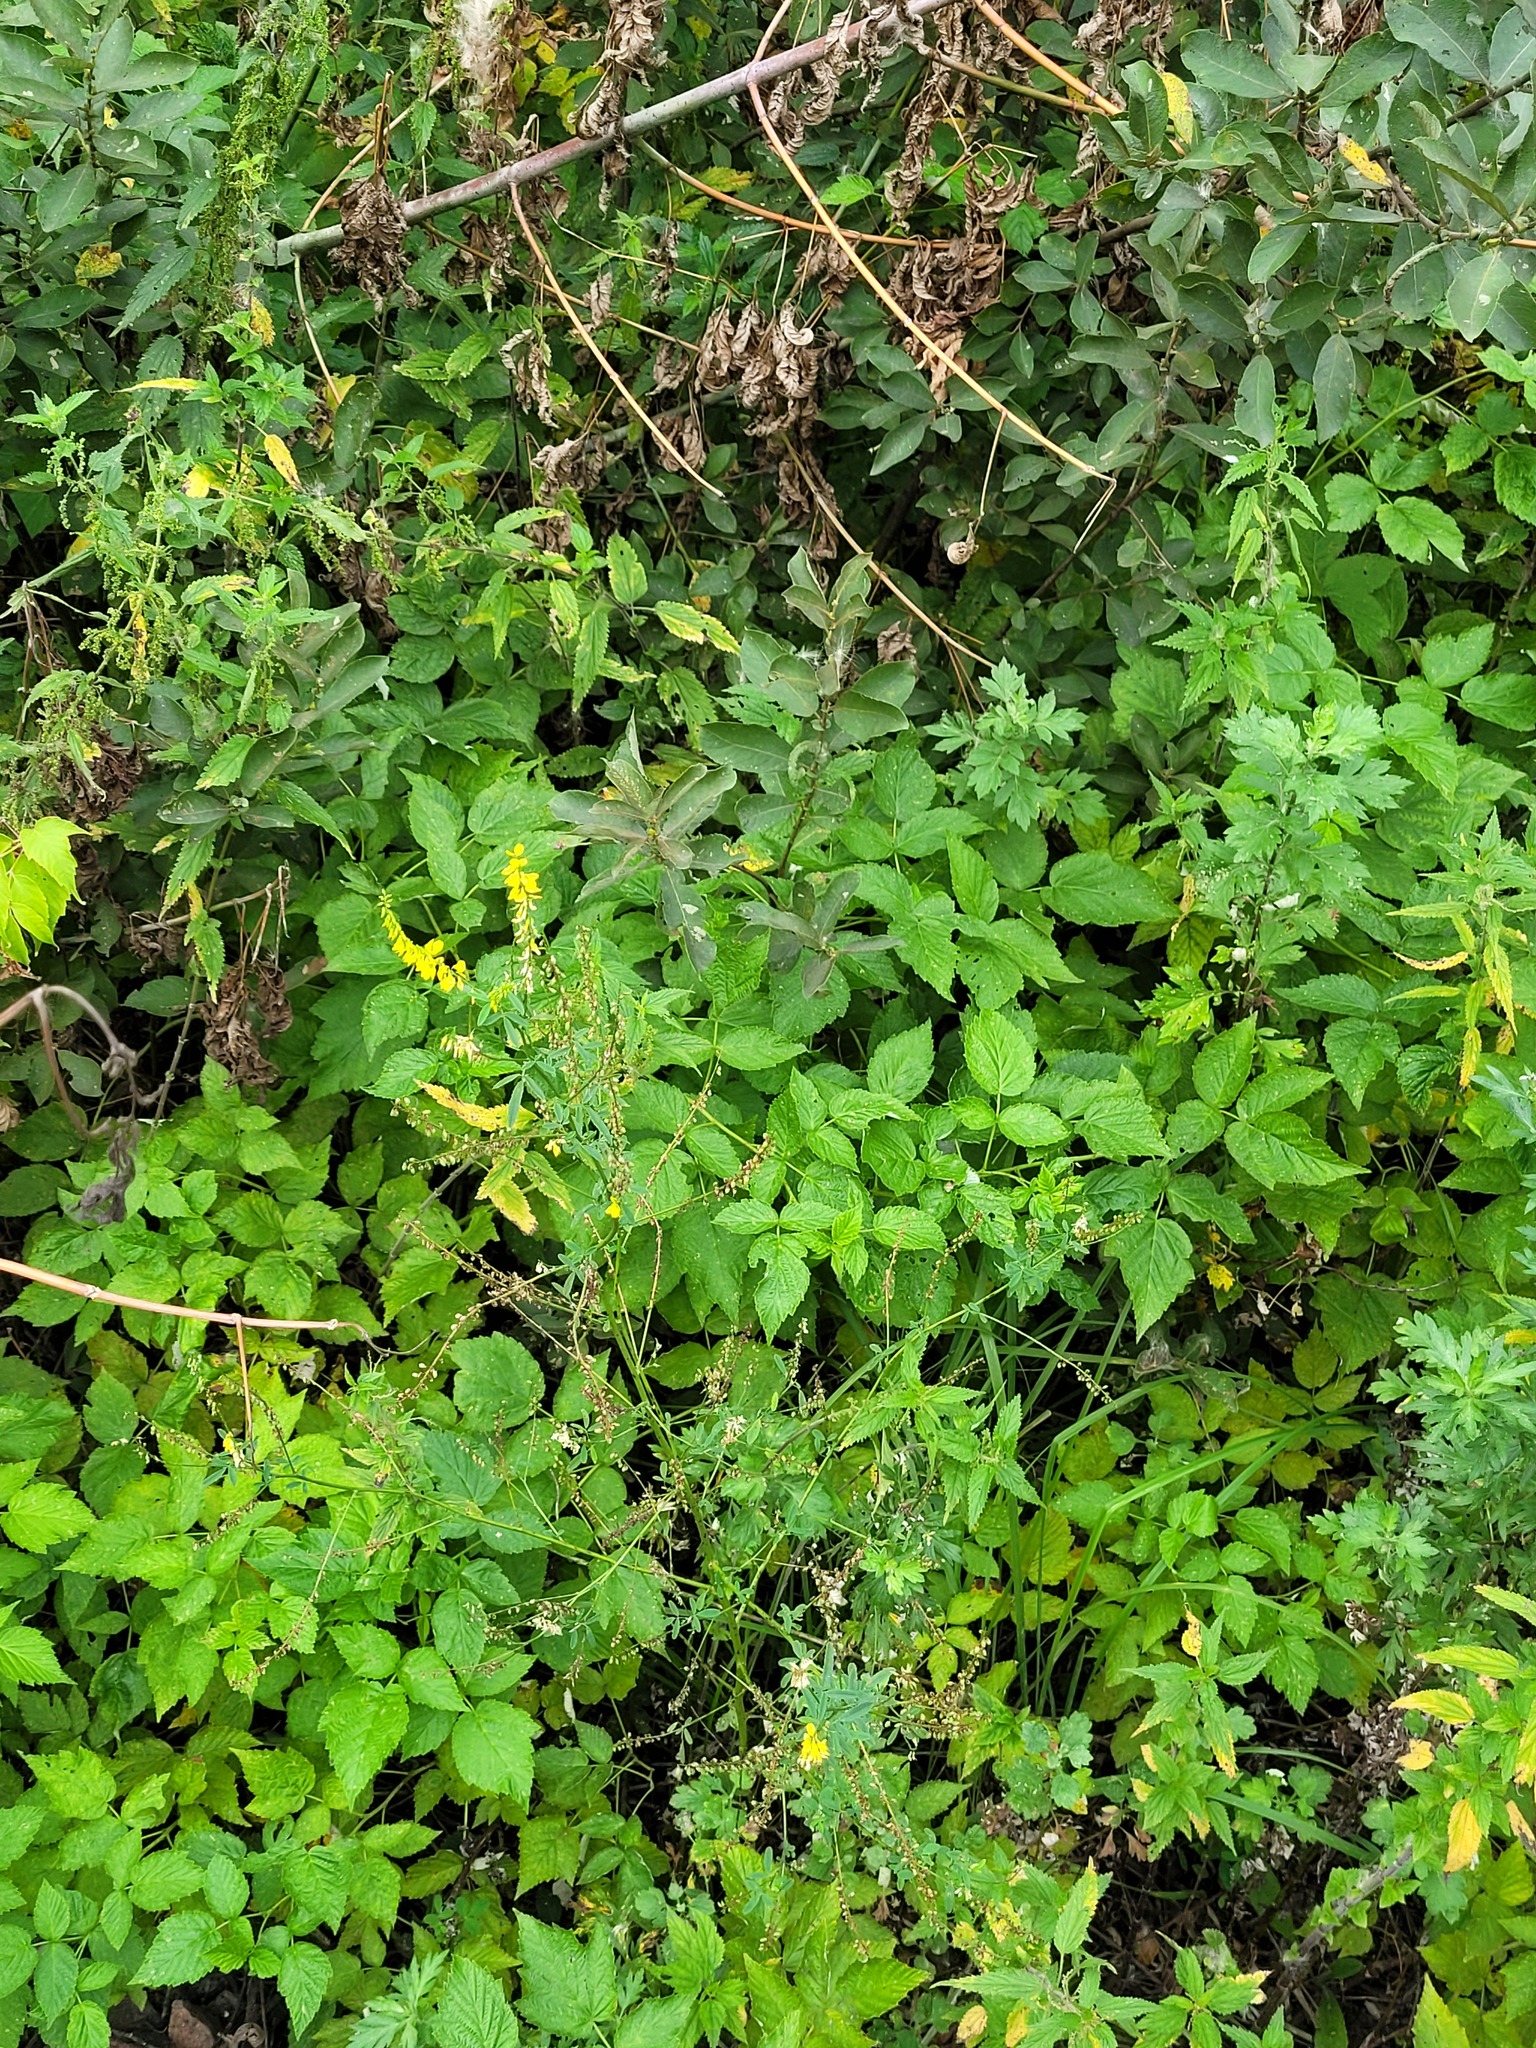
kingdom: Plantae
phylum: Tracheophyta
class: Magnoliopsida
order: Fabales
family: Fabaceae
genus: Melilotus
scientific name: Melilotus officinalis
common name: Sweetclover
